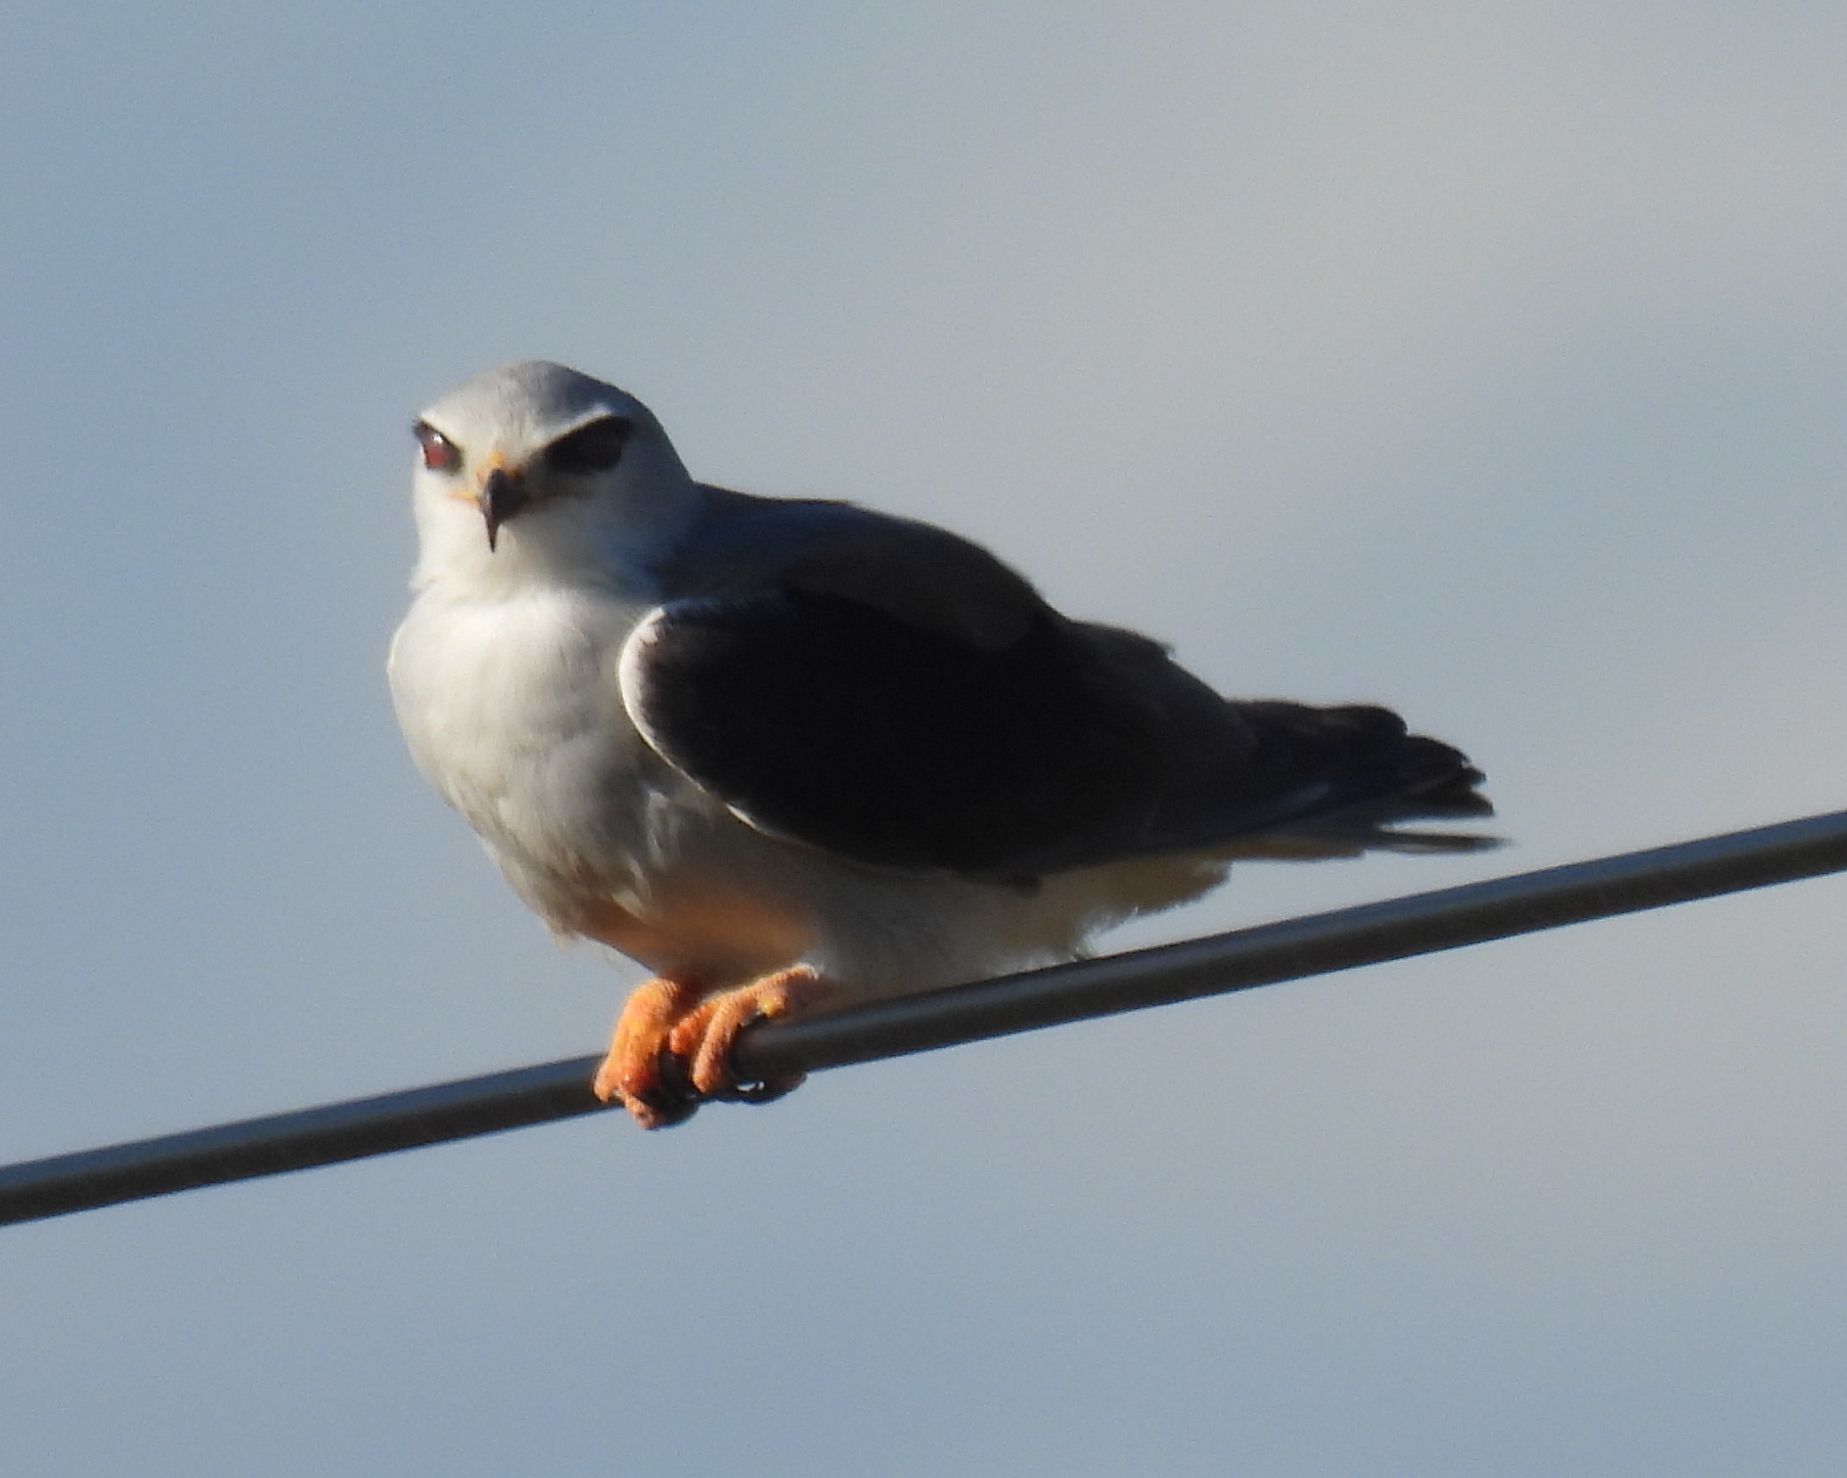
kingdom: Animalia
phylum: Chordata
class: Aves
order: Accipitriformes
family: Accipitridae
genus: Elanus
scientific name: Elanus caeruleus
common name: Black-winged kite
